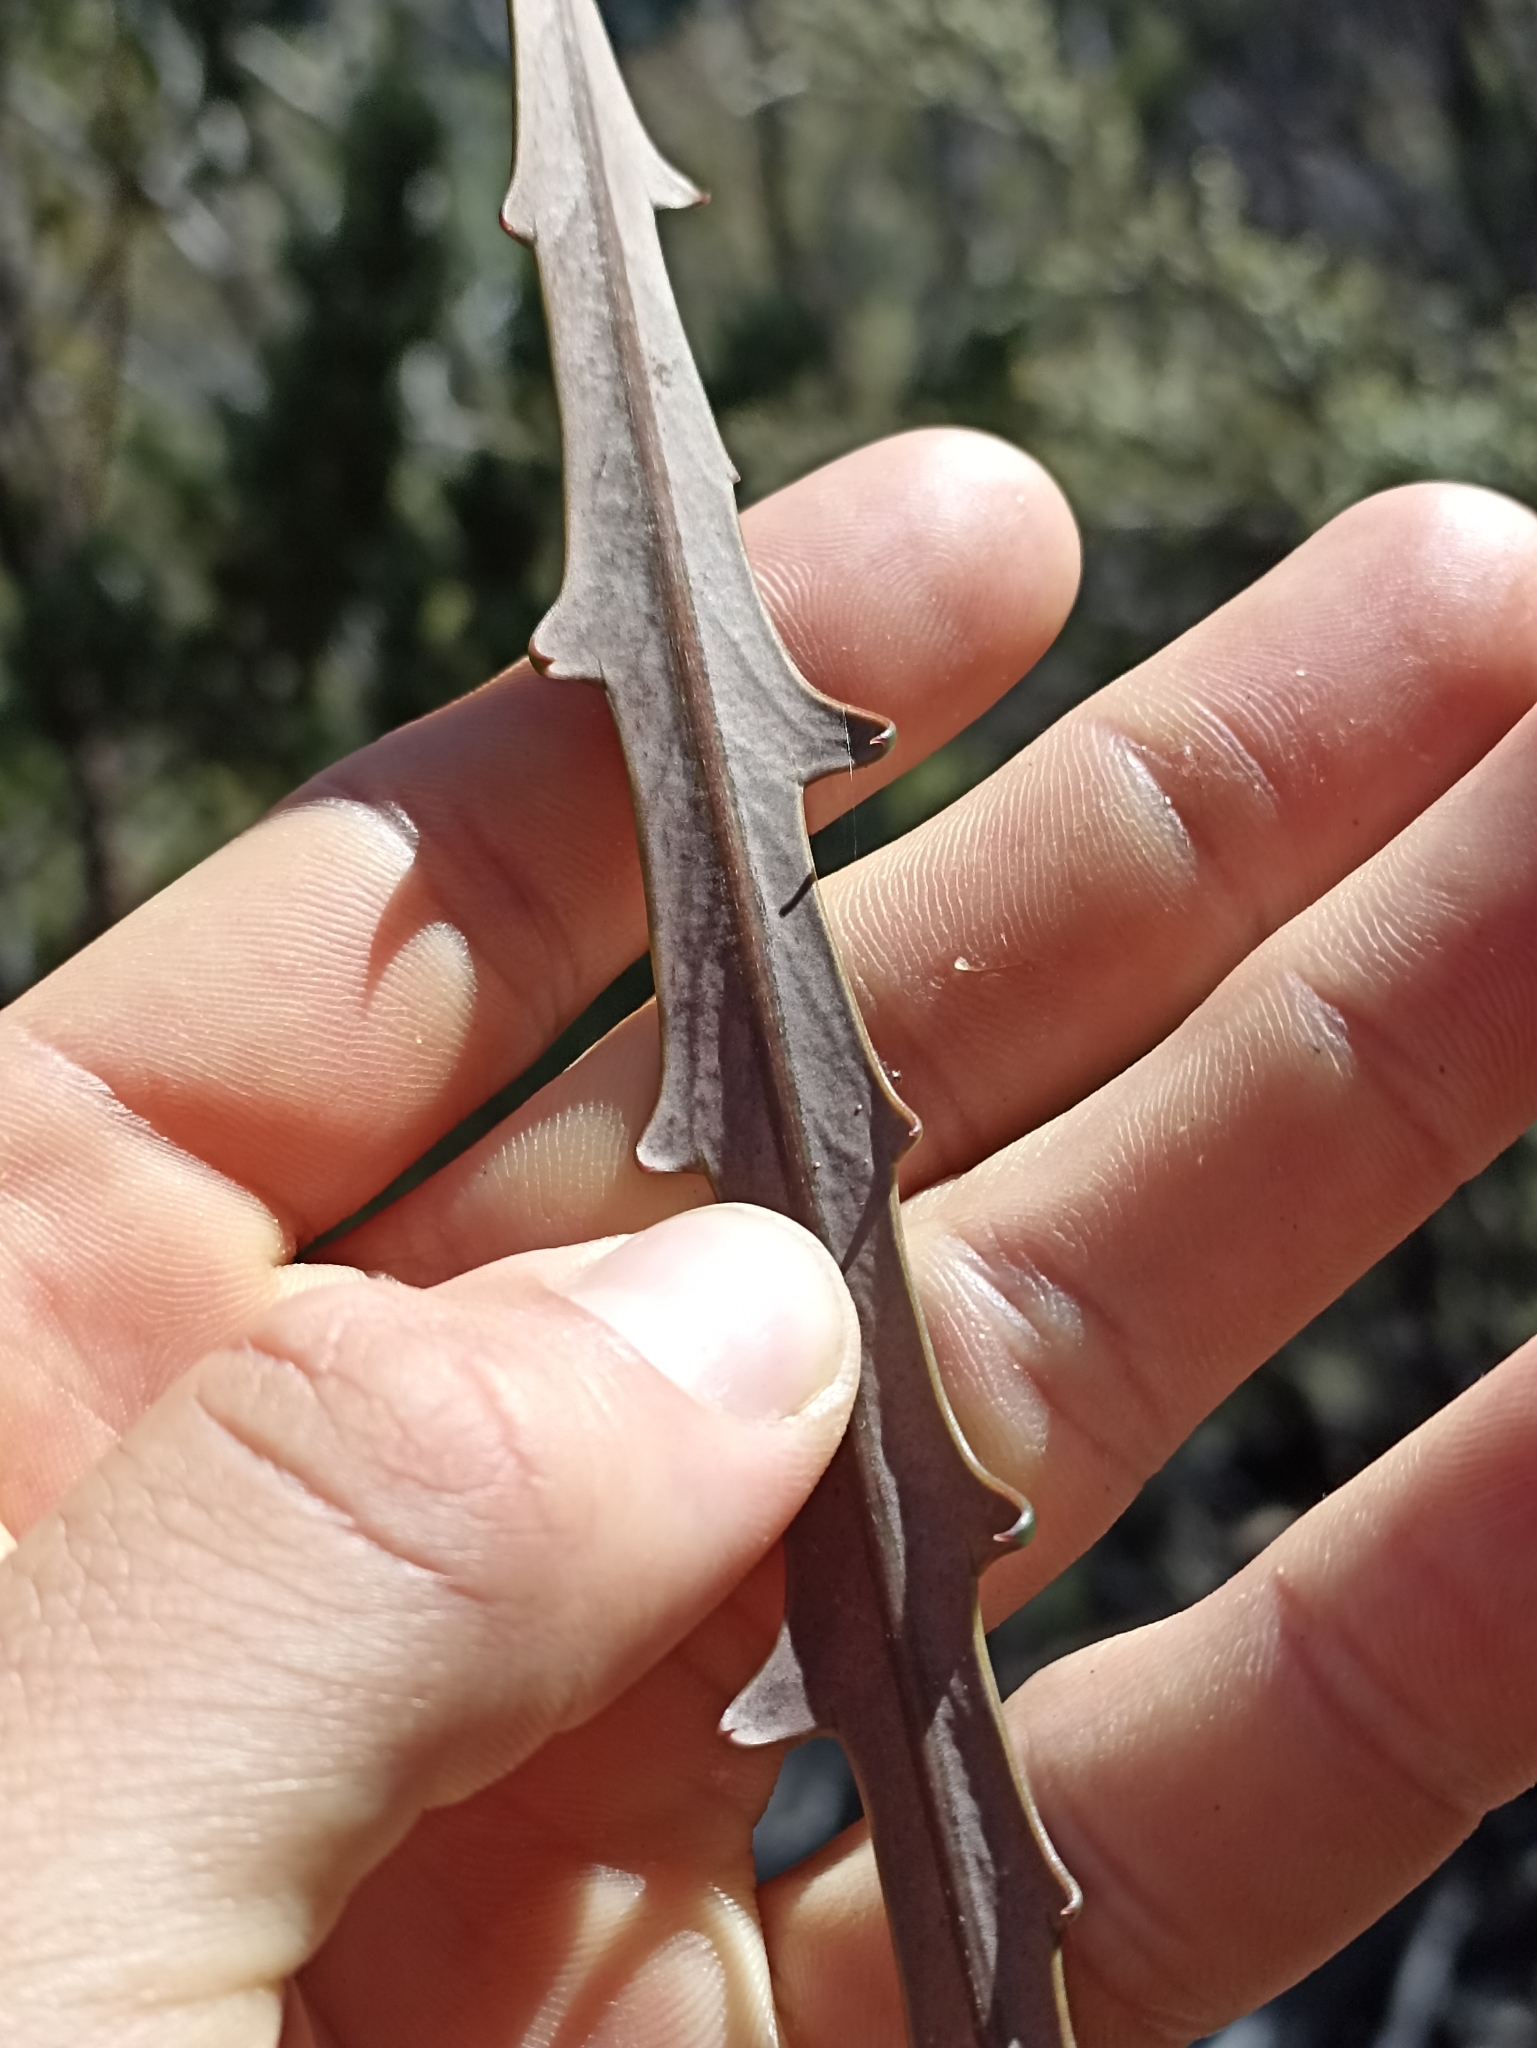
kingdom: Plantae
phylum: Tracheophyta
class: Magnoliopsida
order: Apiales
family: Araliaceae
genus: Pseudopanax
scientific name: Pseudopanax crassifolius
